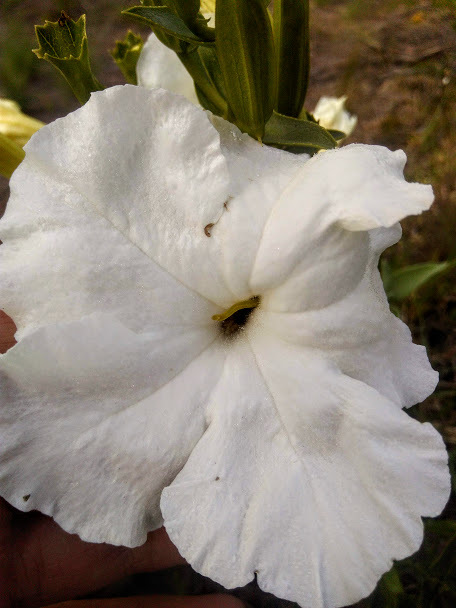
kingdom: Plantae
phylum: Tracheophyta
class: Magnoliopsida
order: Lamiales
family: Orobanchaceae
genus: Escobedia
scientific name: Escobedia grandiflora
